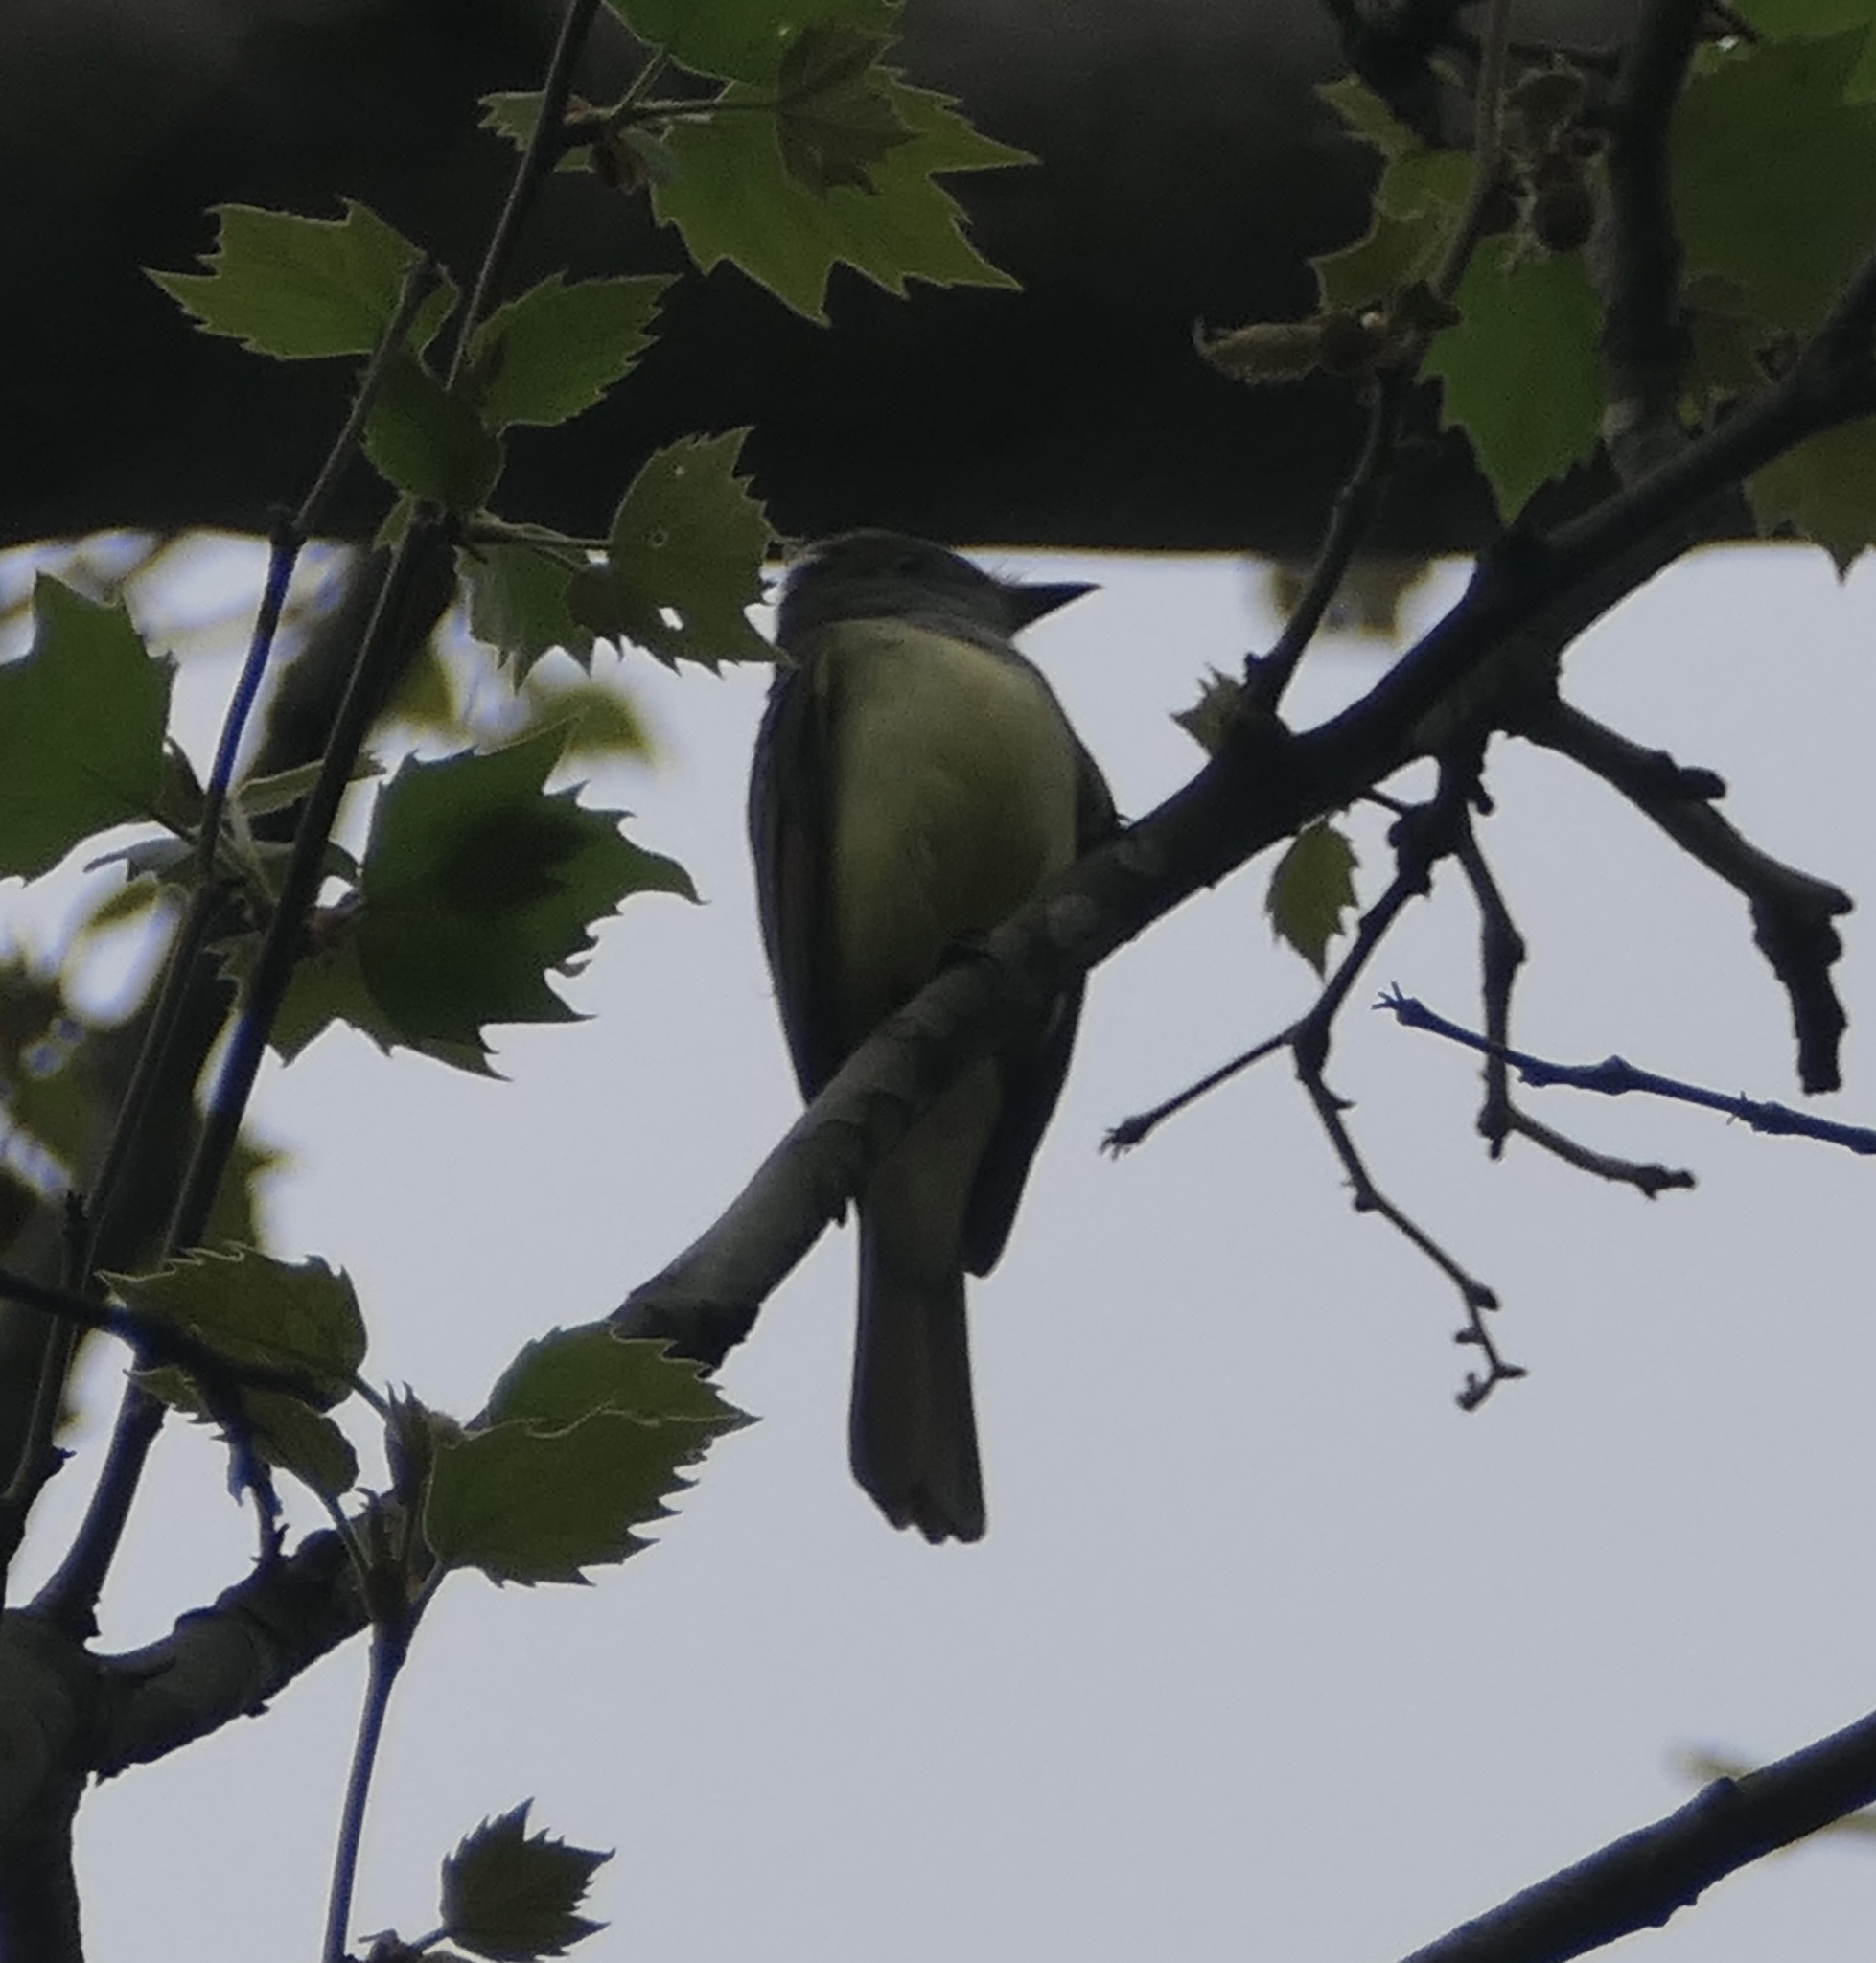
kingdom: Animalia
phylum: Chordata
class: Aves
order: Passeriformes
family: Tyrannidae
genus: Myiarchus
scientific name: Myiarchus crinitus
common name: Great crested flycatcher
